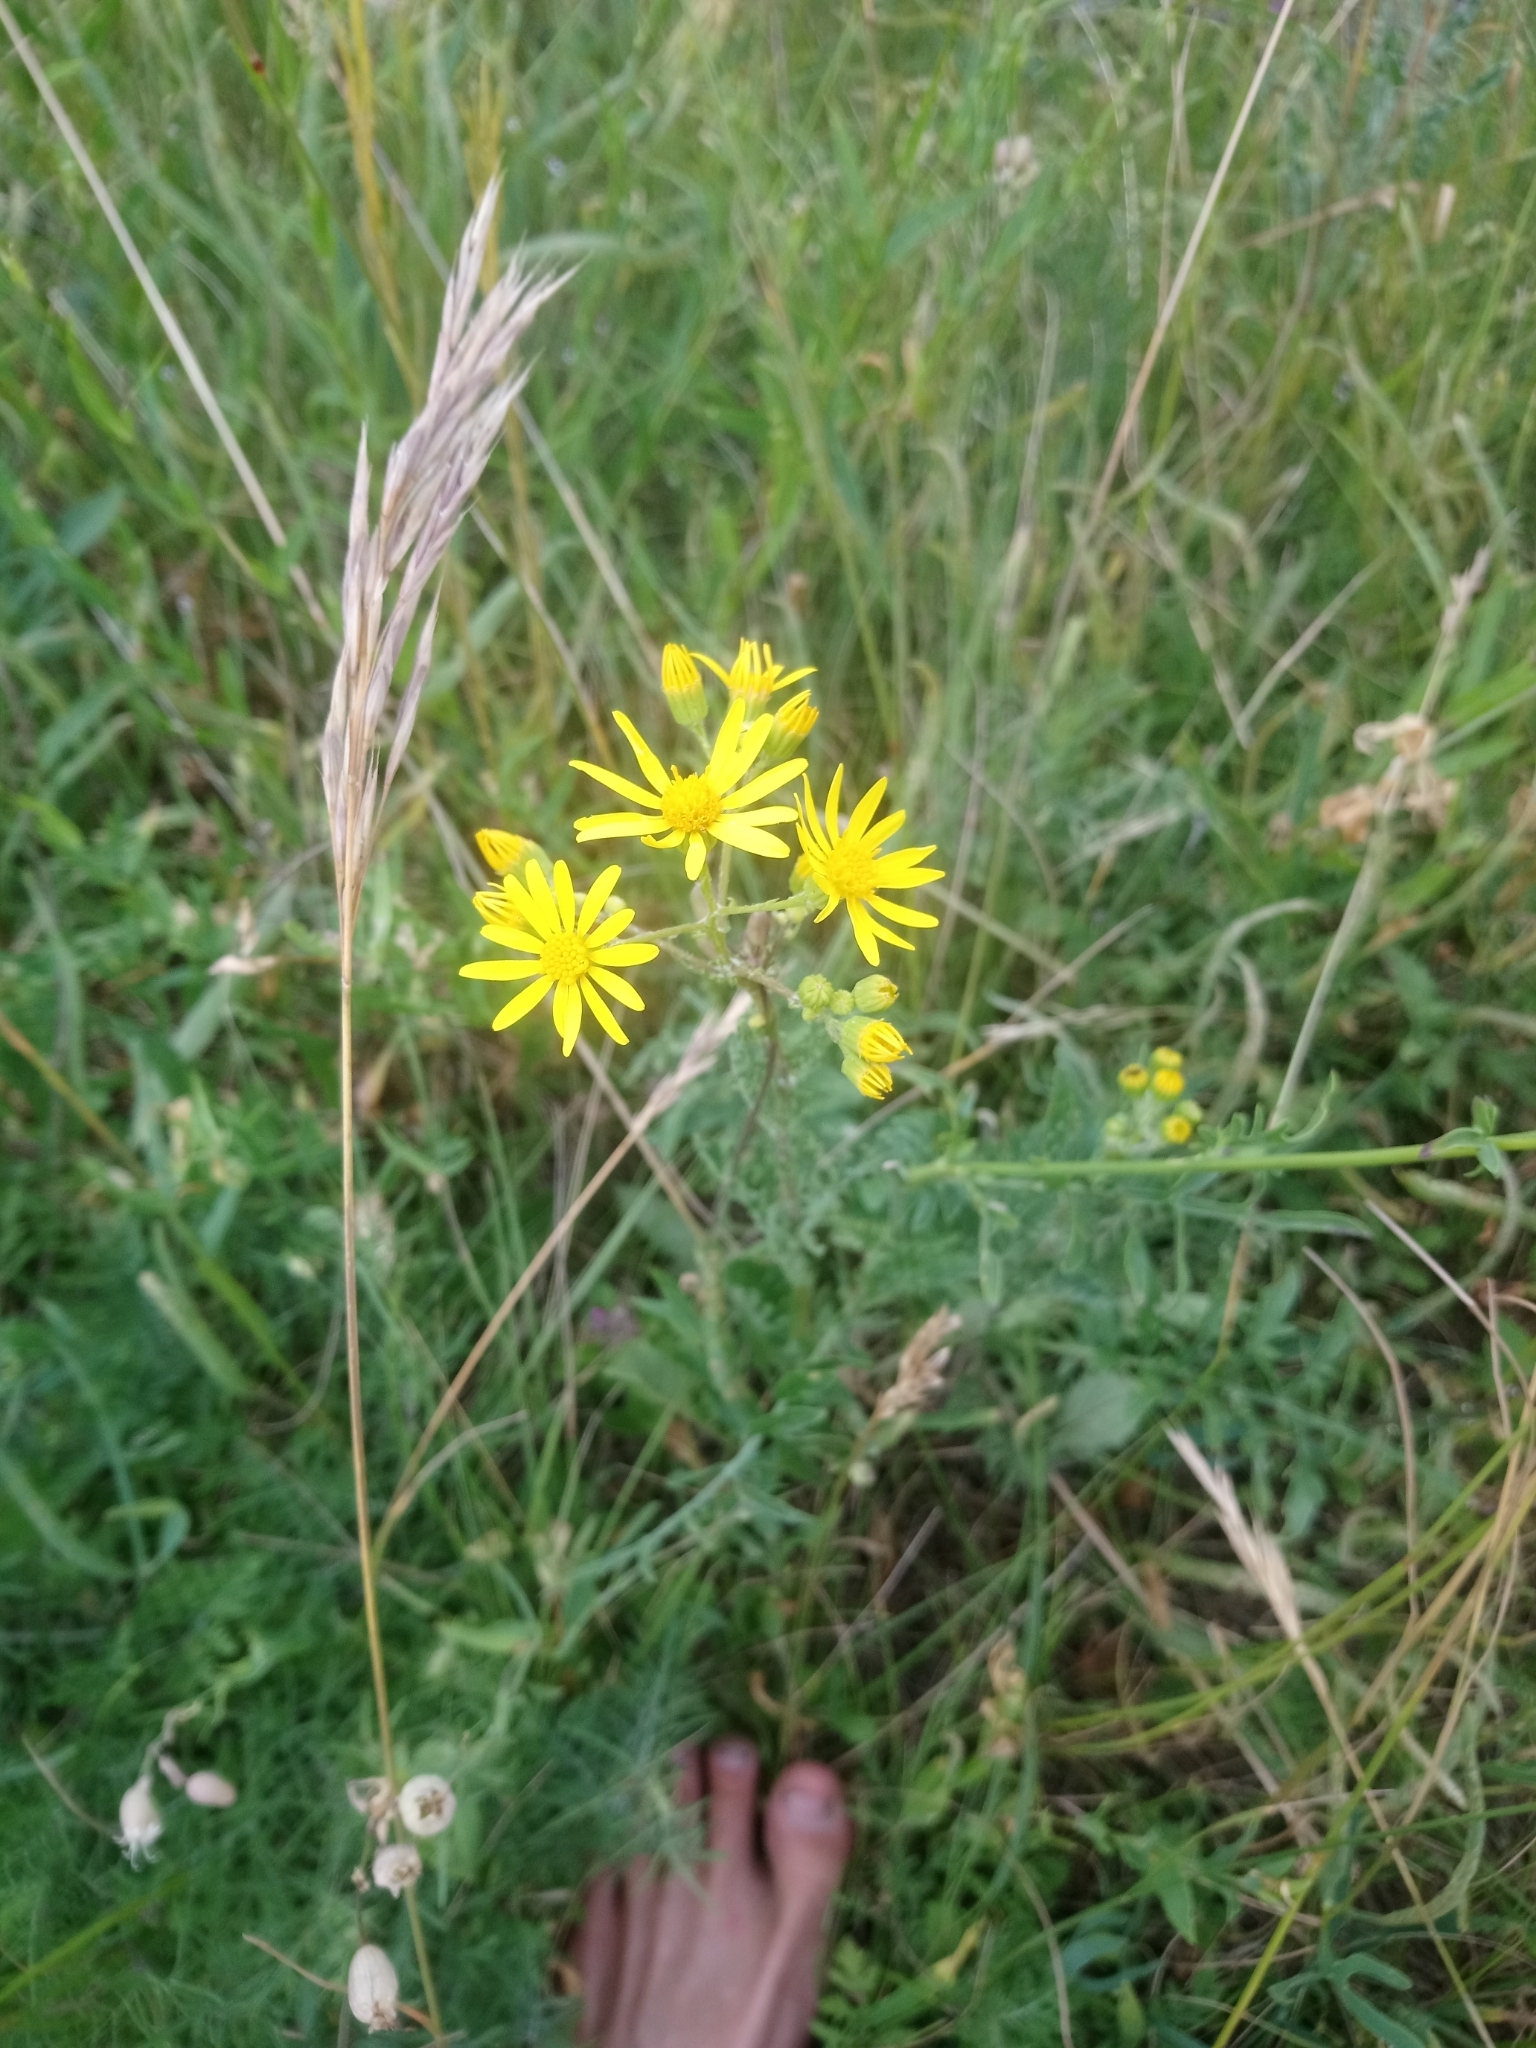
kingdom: Plantae
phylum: Tracheophyta
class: Magnoliopsida
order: Asterales
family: Asteraceae
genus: Jacobaea
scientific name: Jacobaea vulgaris
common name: Stinking willie
